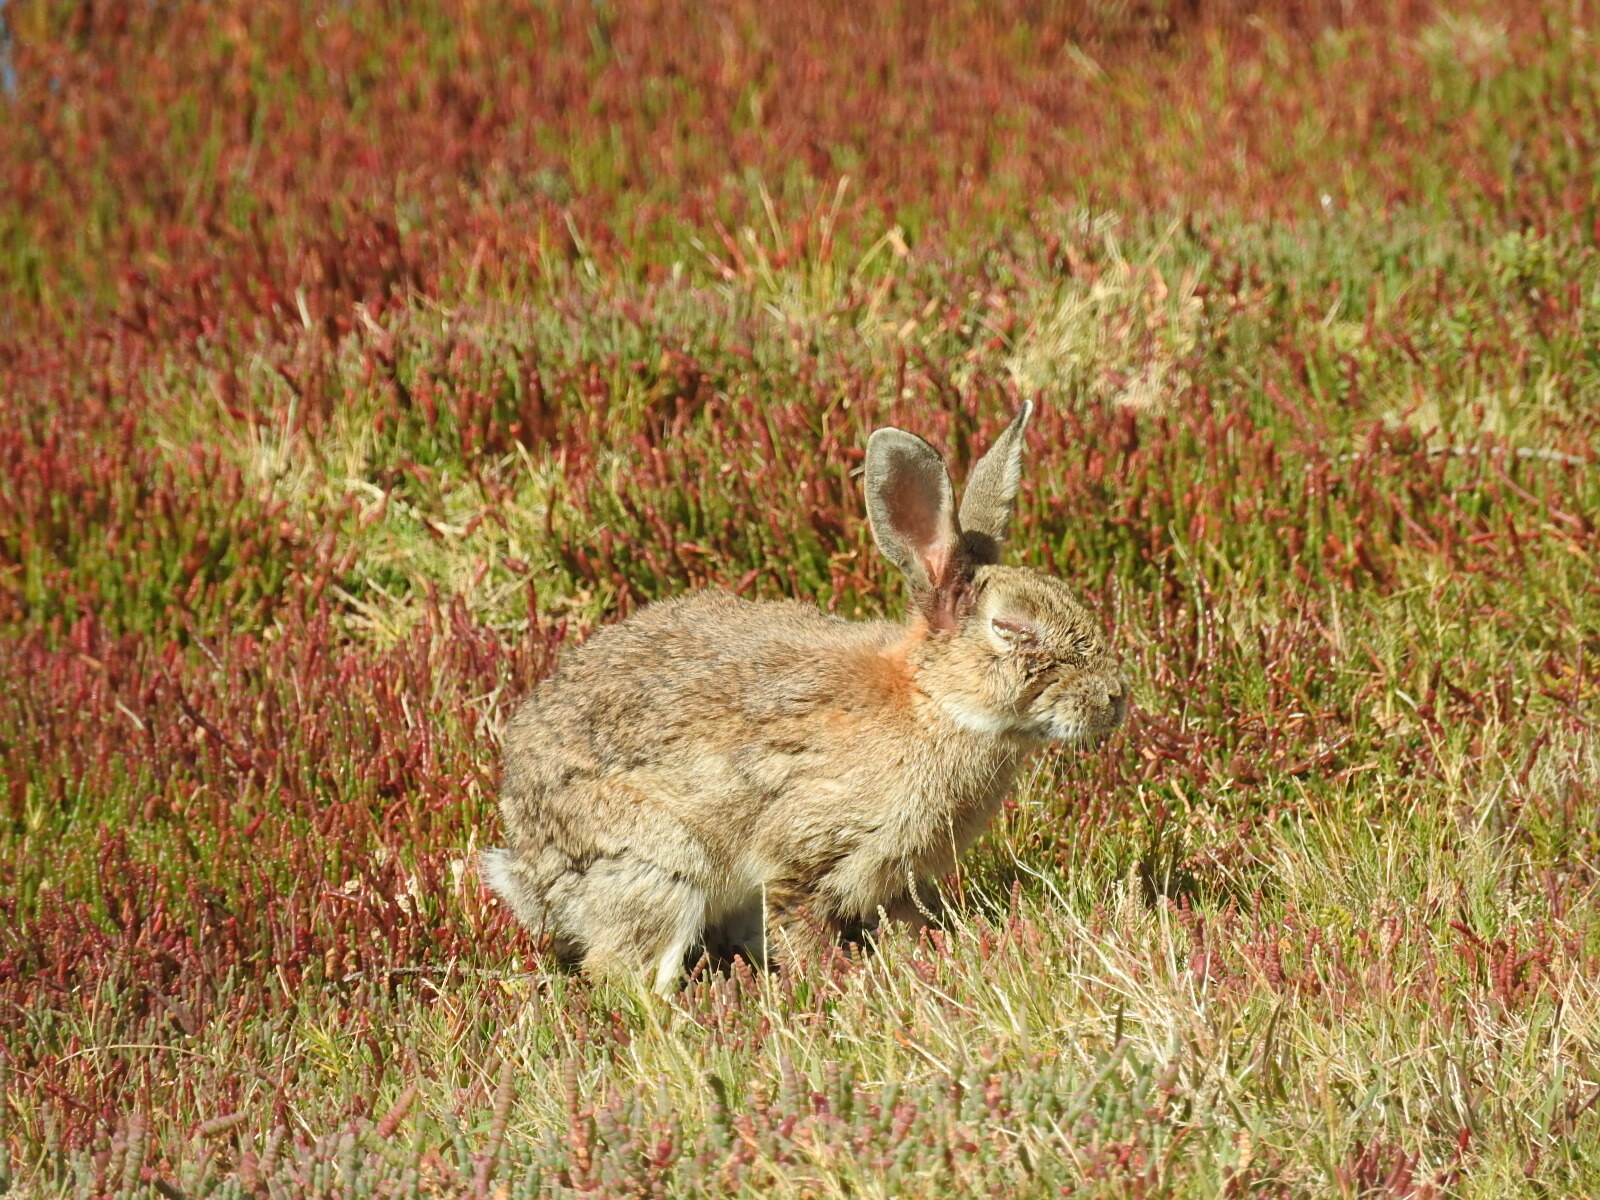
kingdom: Animalia
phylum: Chordata
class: Mammalia
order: Lagomorpha
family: Leporidae
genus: Oryctolagus
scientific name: Oryctolagus cuniculus
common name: European rabbit
